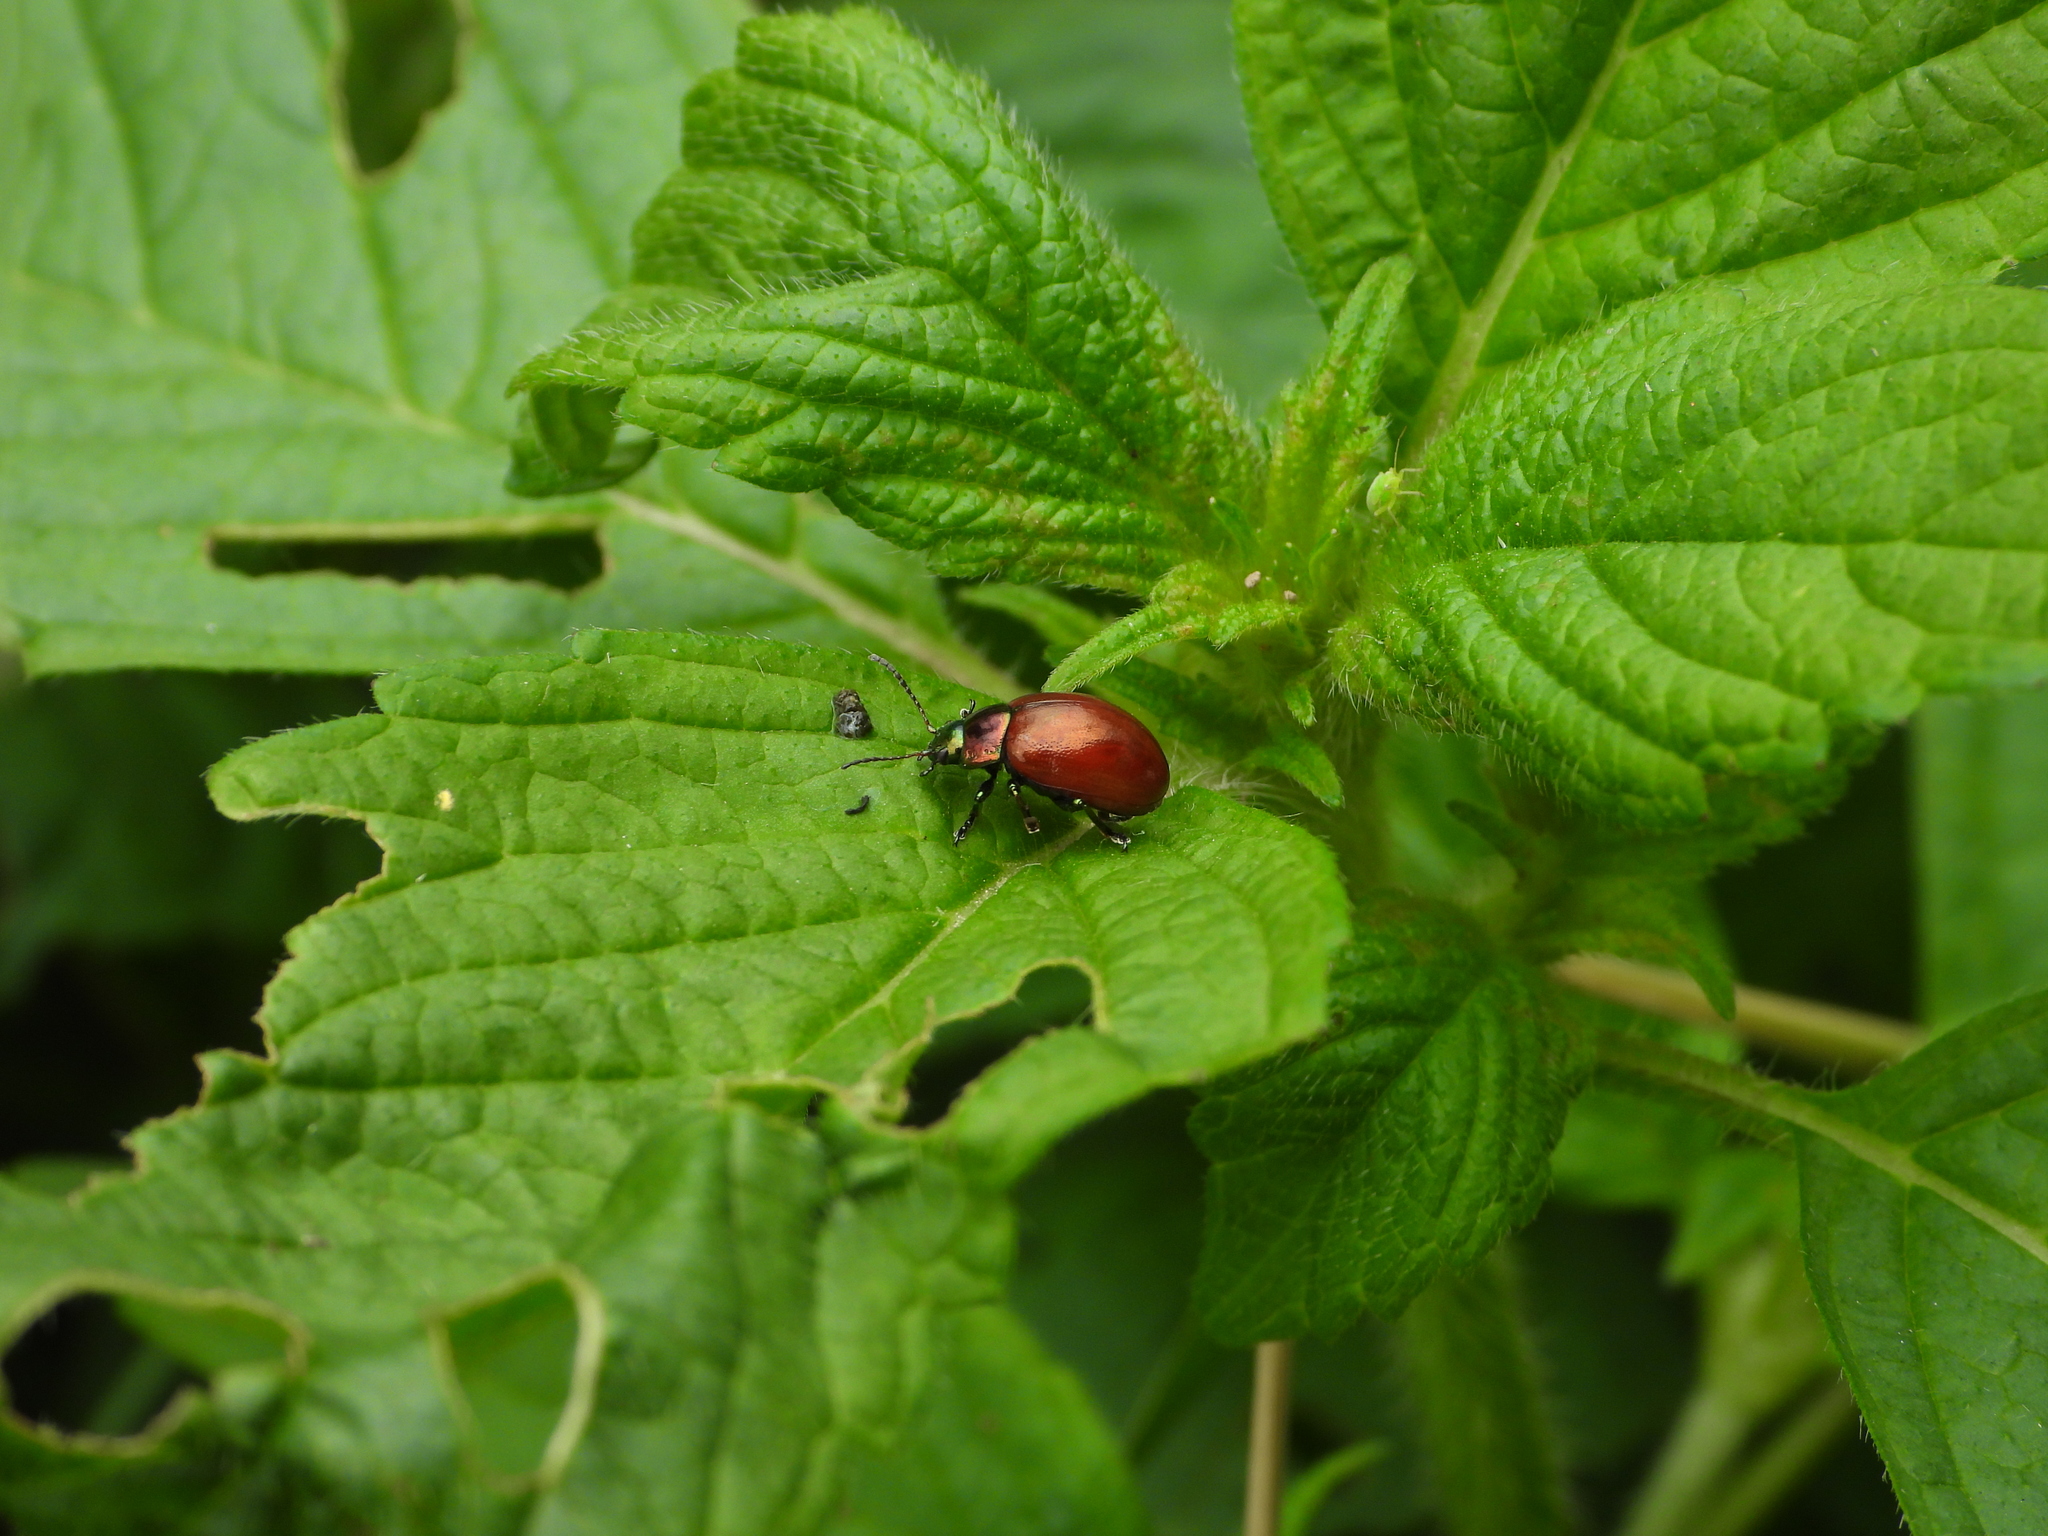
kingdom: Animalia
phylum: Arthropoda
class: Insecta
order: Coleoptera
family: Chrysomelidae
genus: Chrysomela
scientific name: Chrysomela polita
